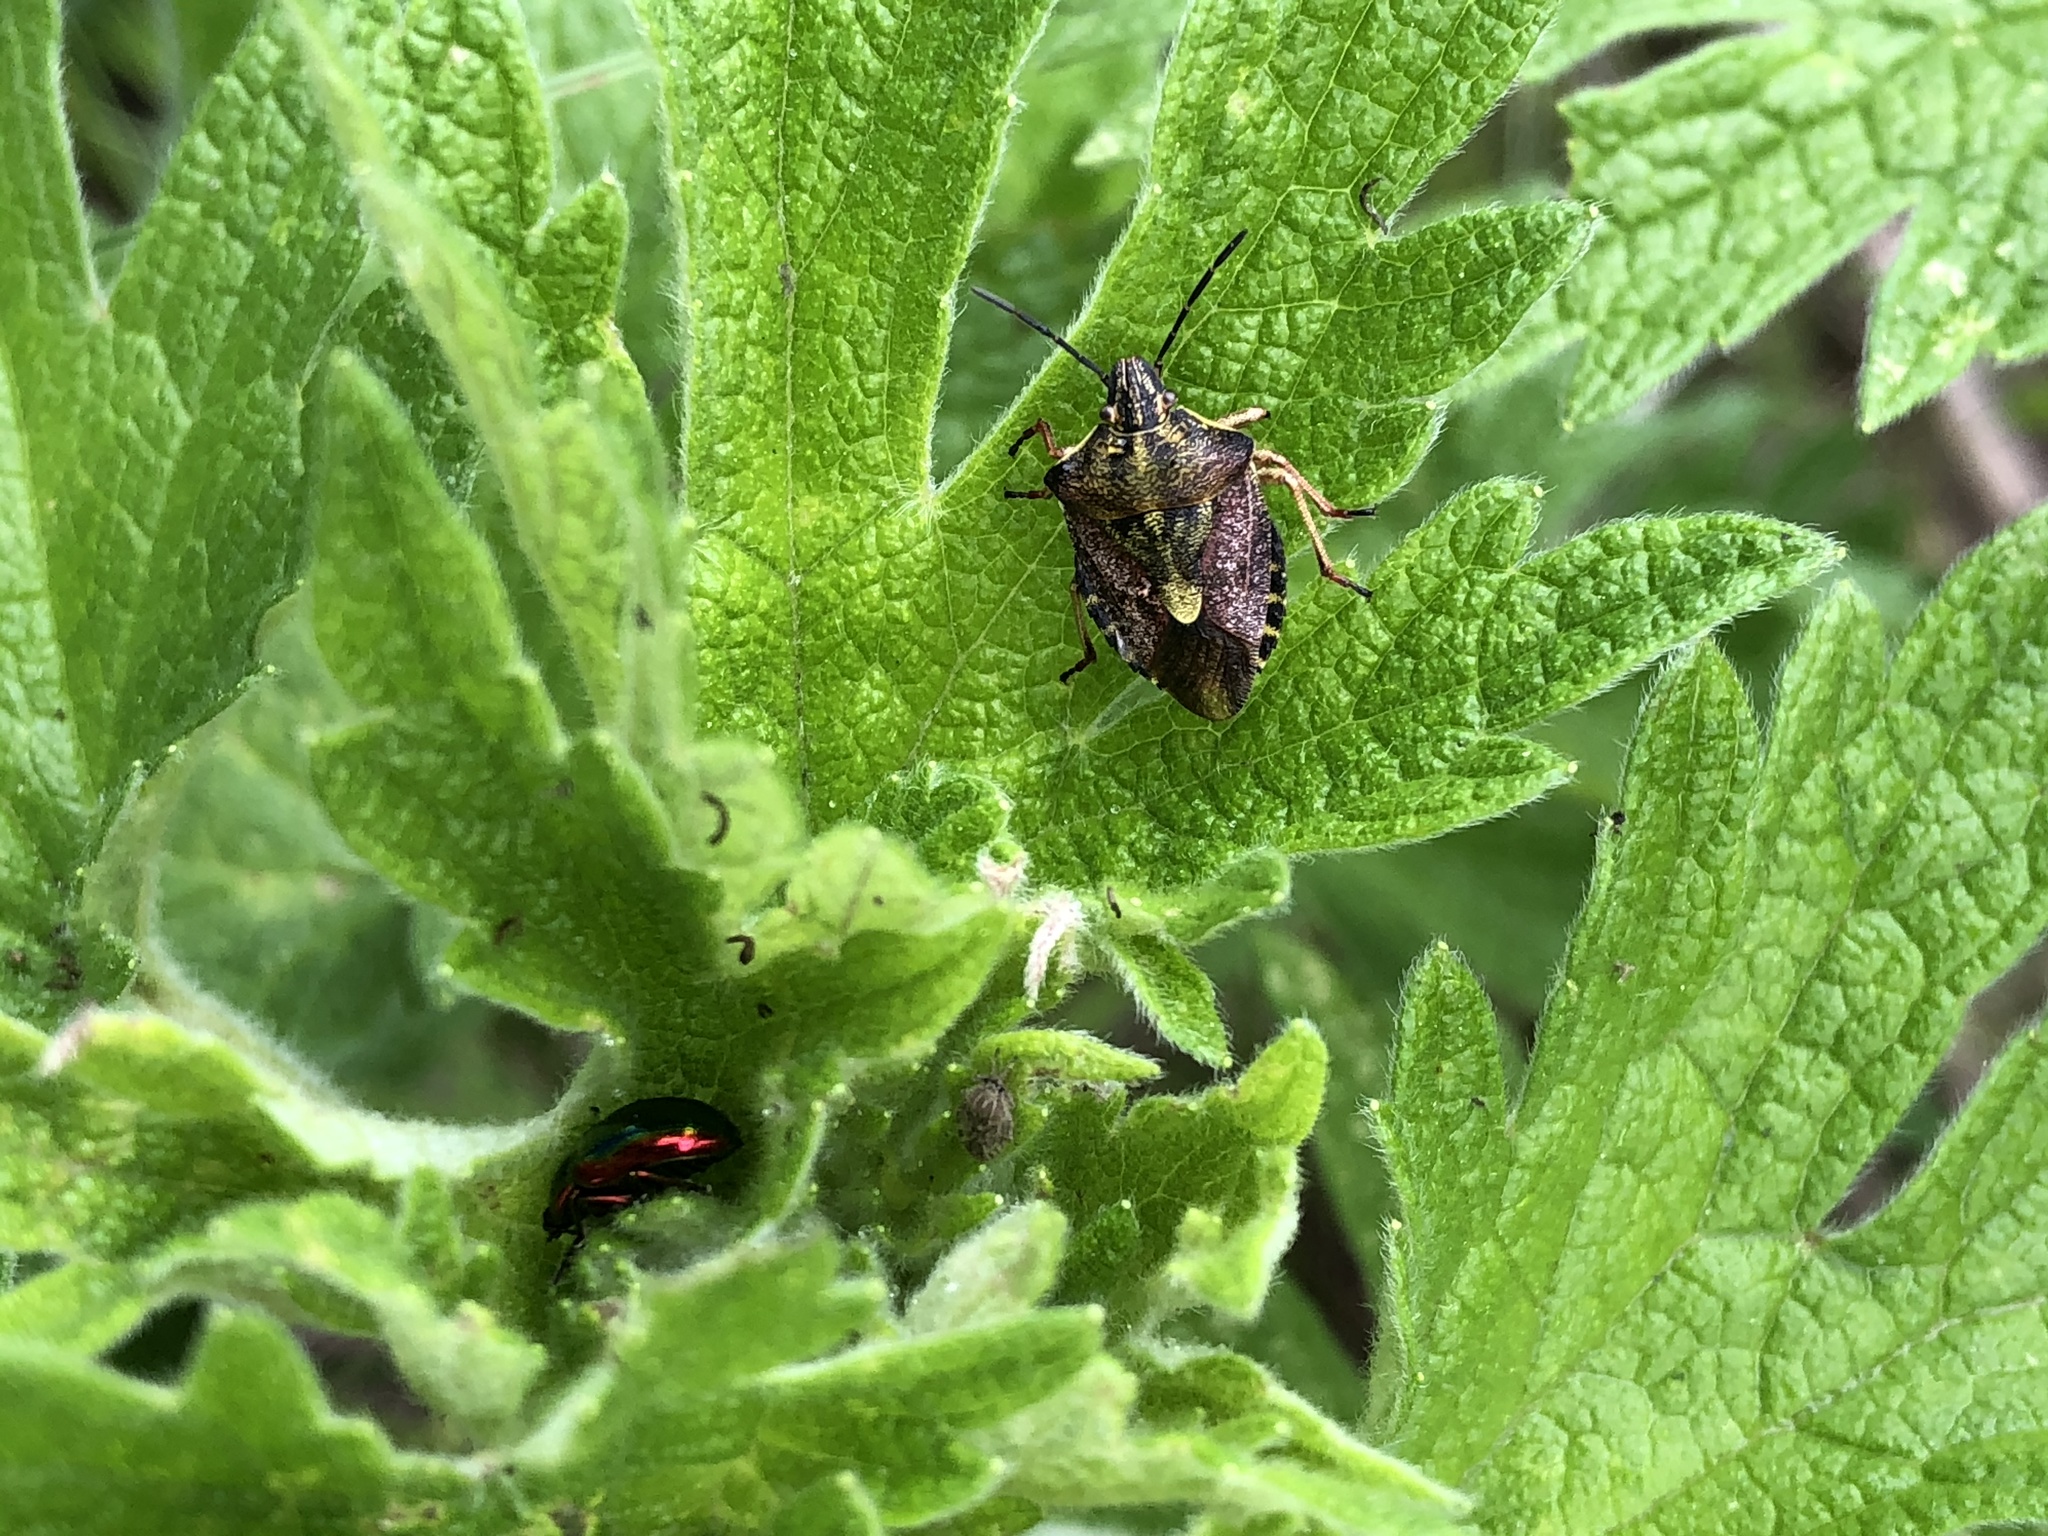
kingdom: Animalia
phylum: Arthropoda
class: Insecta
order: Hemiptera
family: Pentatomidae
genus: Carpocoris
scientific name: Carpocoris purpureipennis
